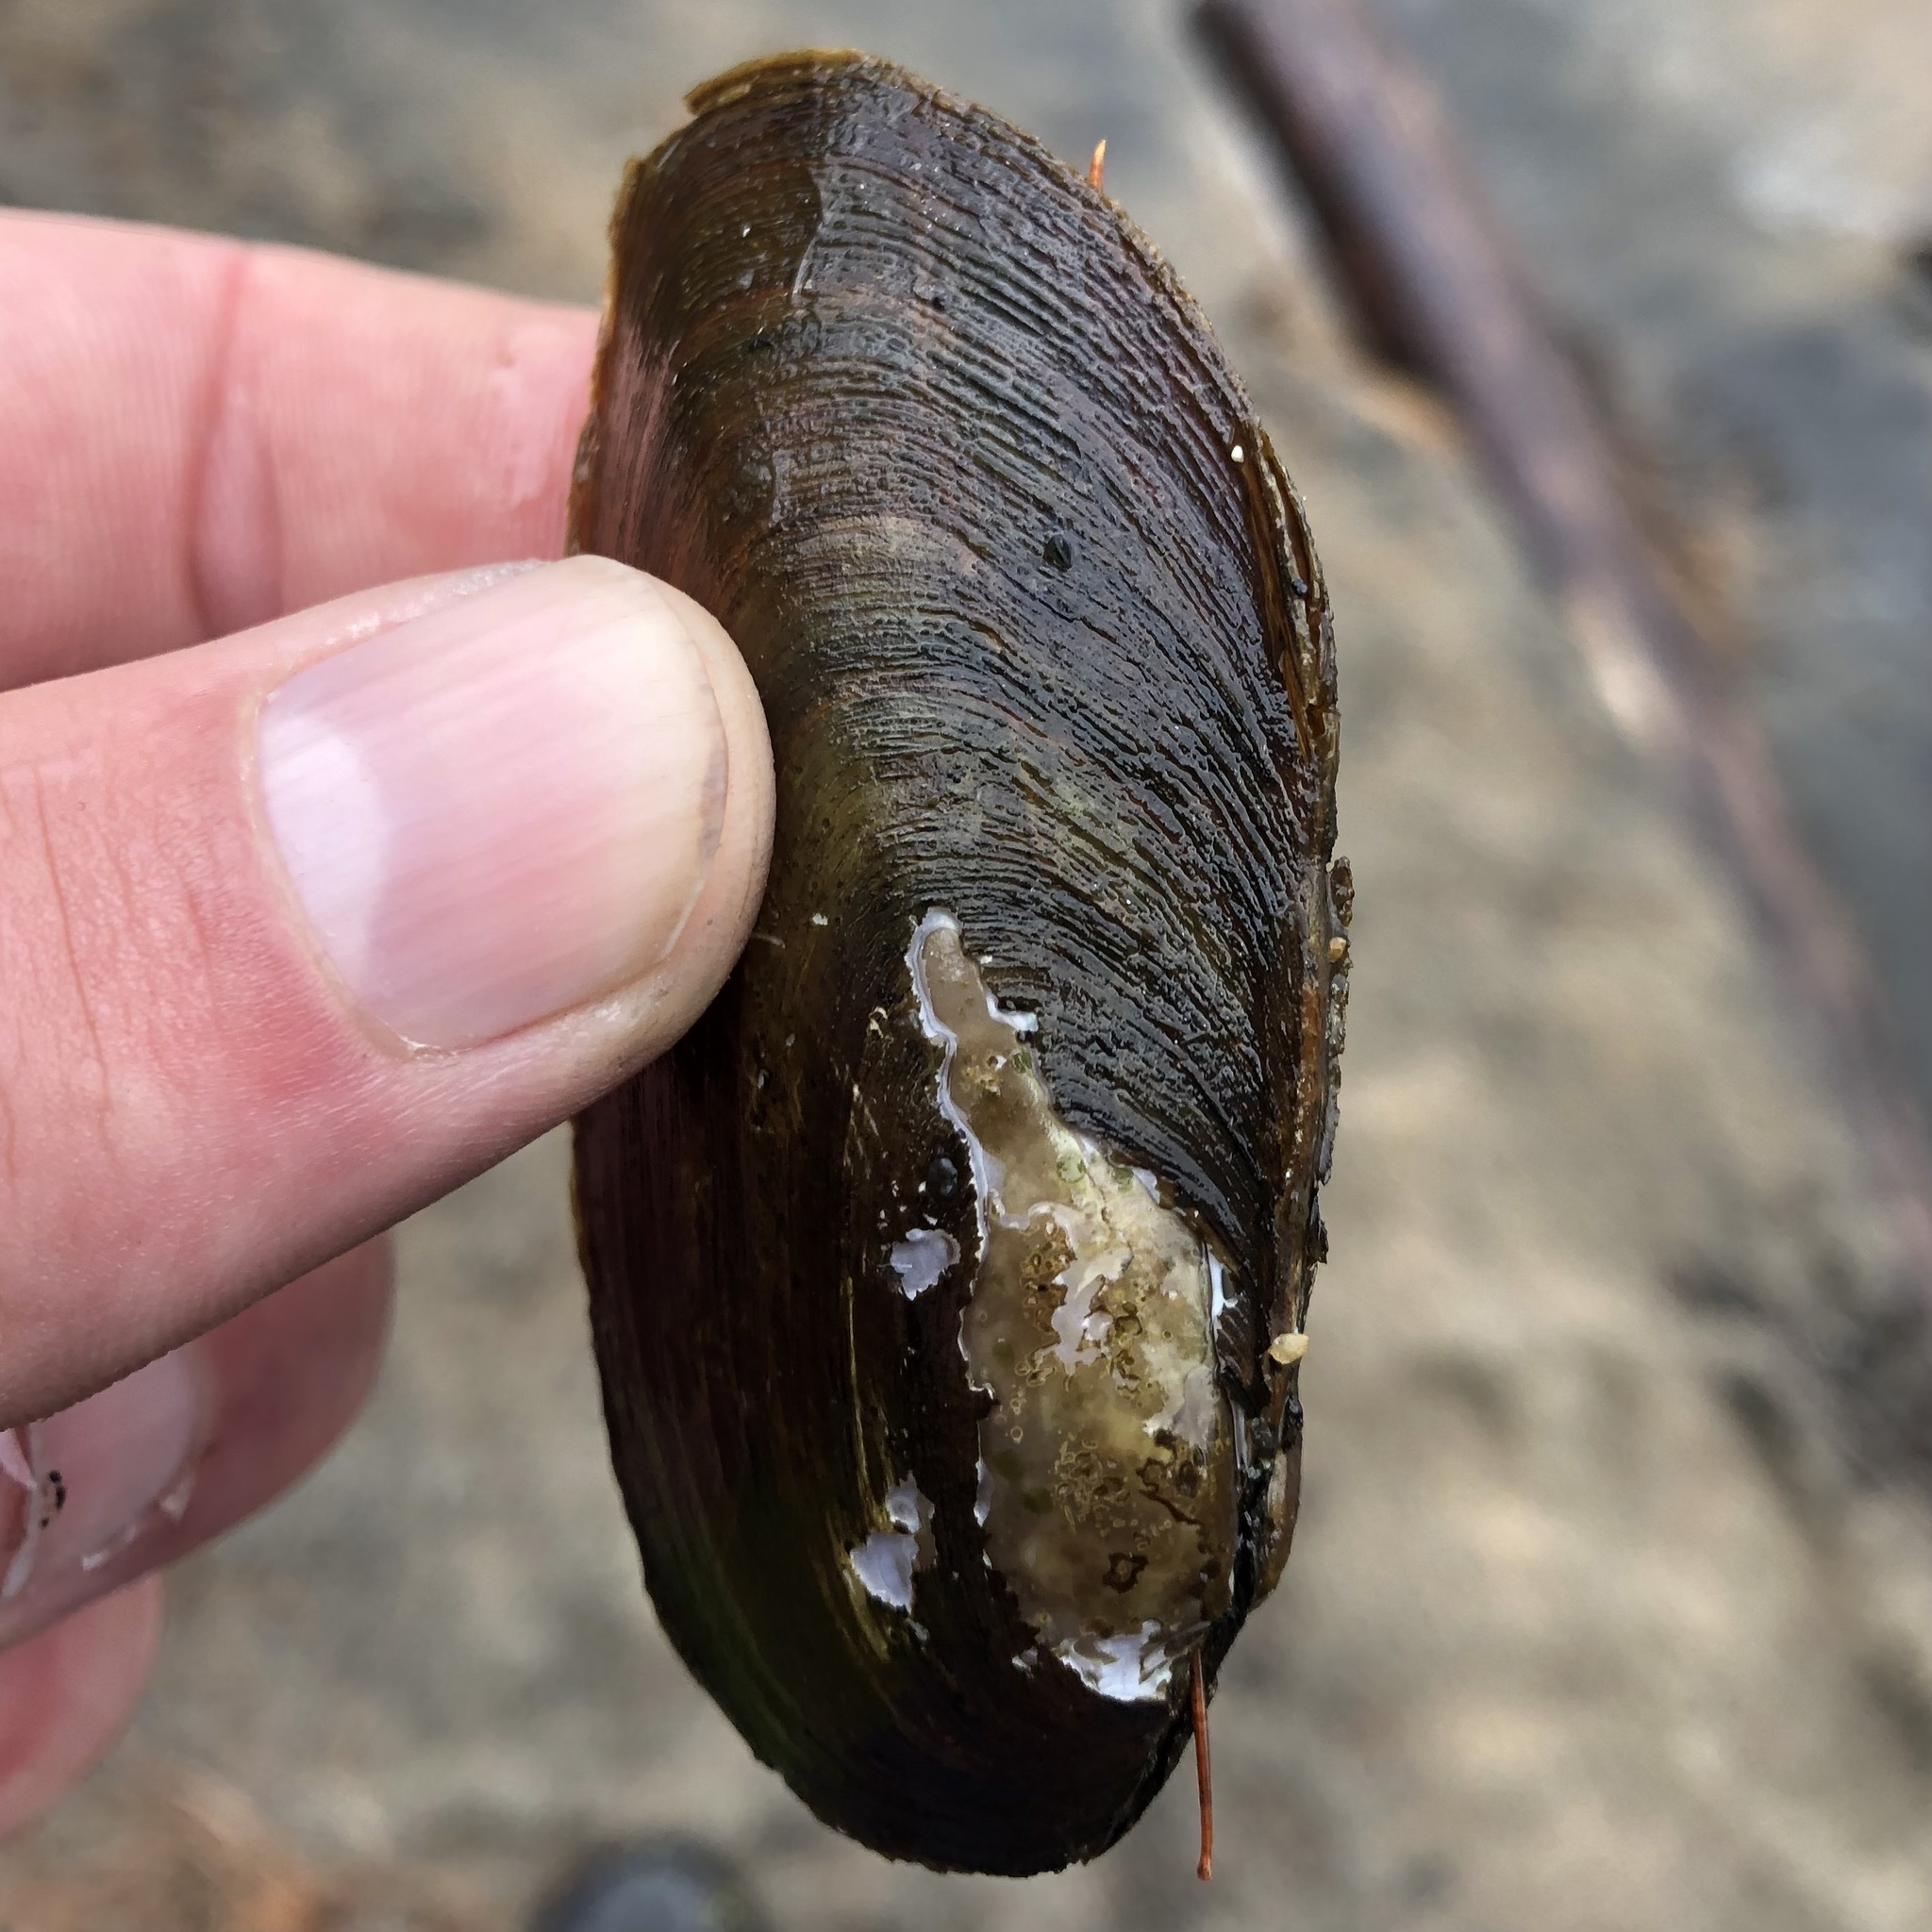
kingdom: Animalia
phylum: Mollusca
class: Bivalvia
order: Unionida
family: Unionidae
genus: Elliptio
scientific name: Elliptio complanata
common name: Eastern elliptio
